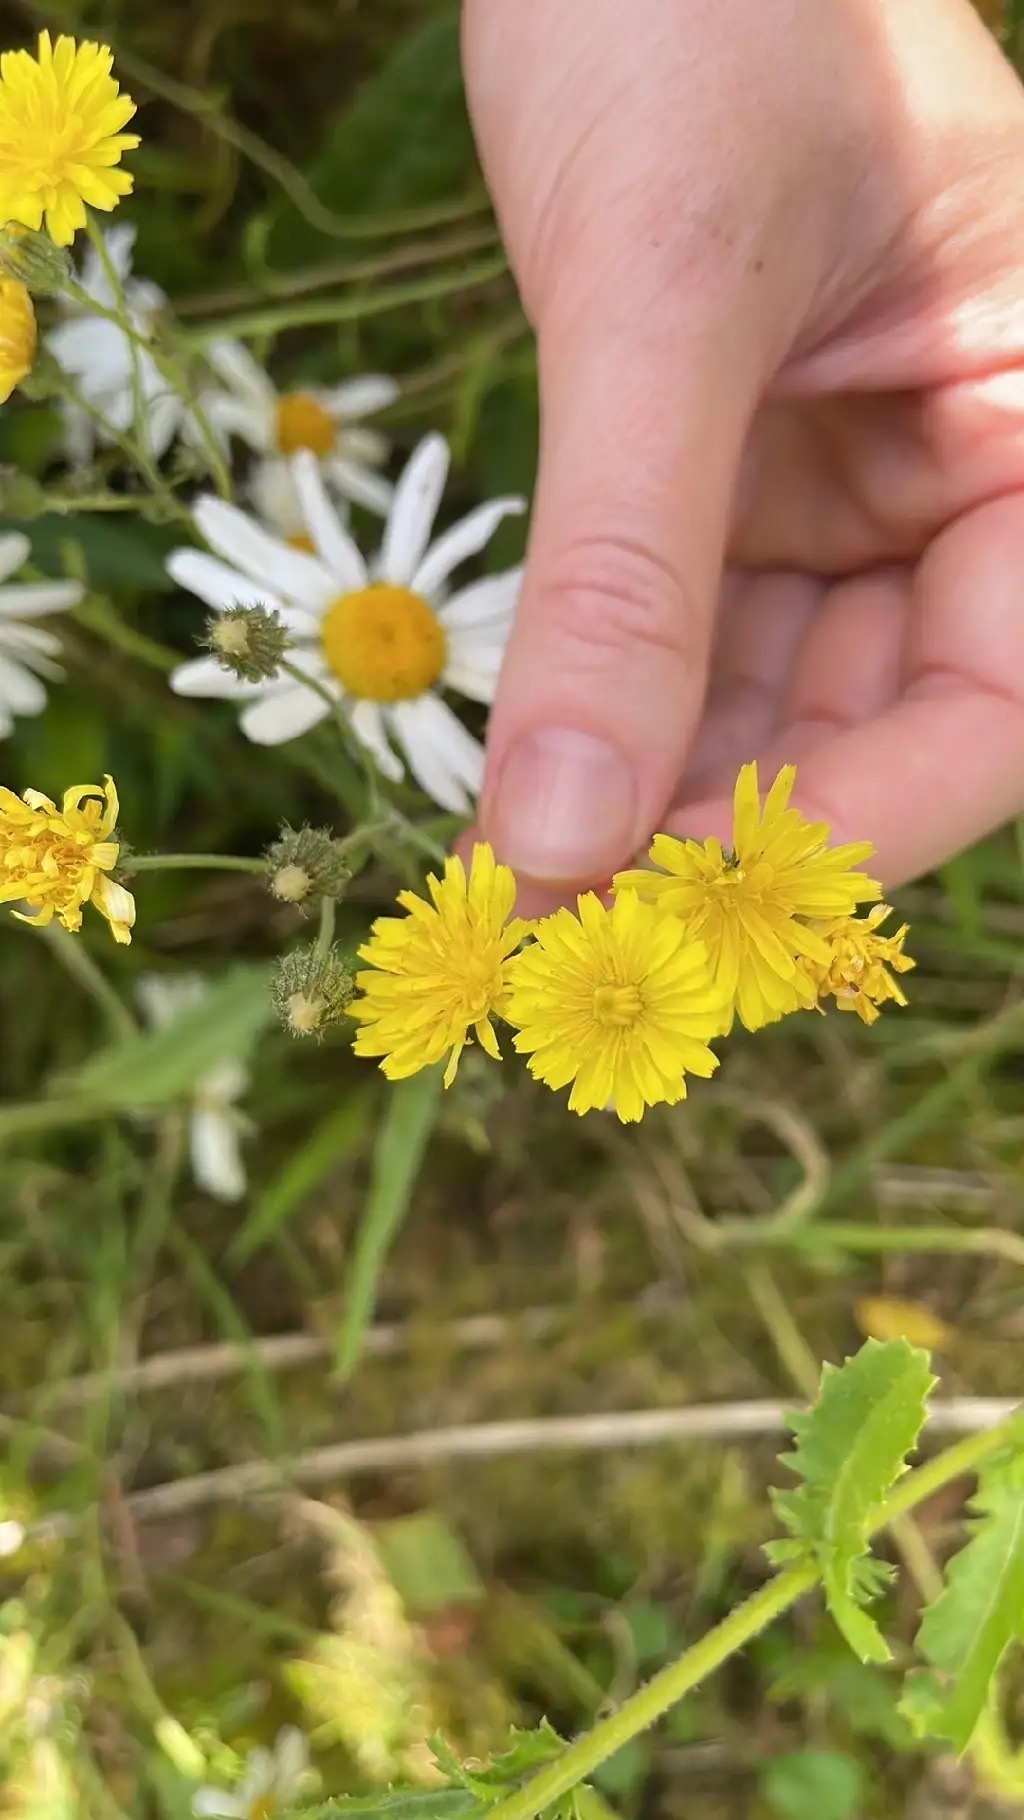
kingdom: Plantae
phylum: Tracheophyta
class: Magnoliopsida
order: Asterales
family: Asteraceae
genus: Crepis
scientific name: Crepis capillaris
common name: Smooth hawksbeard
